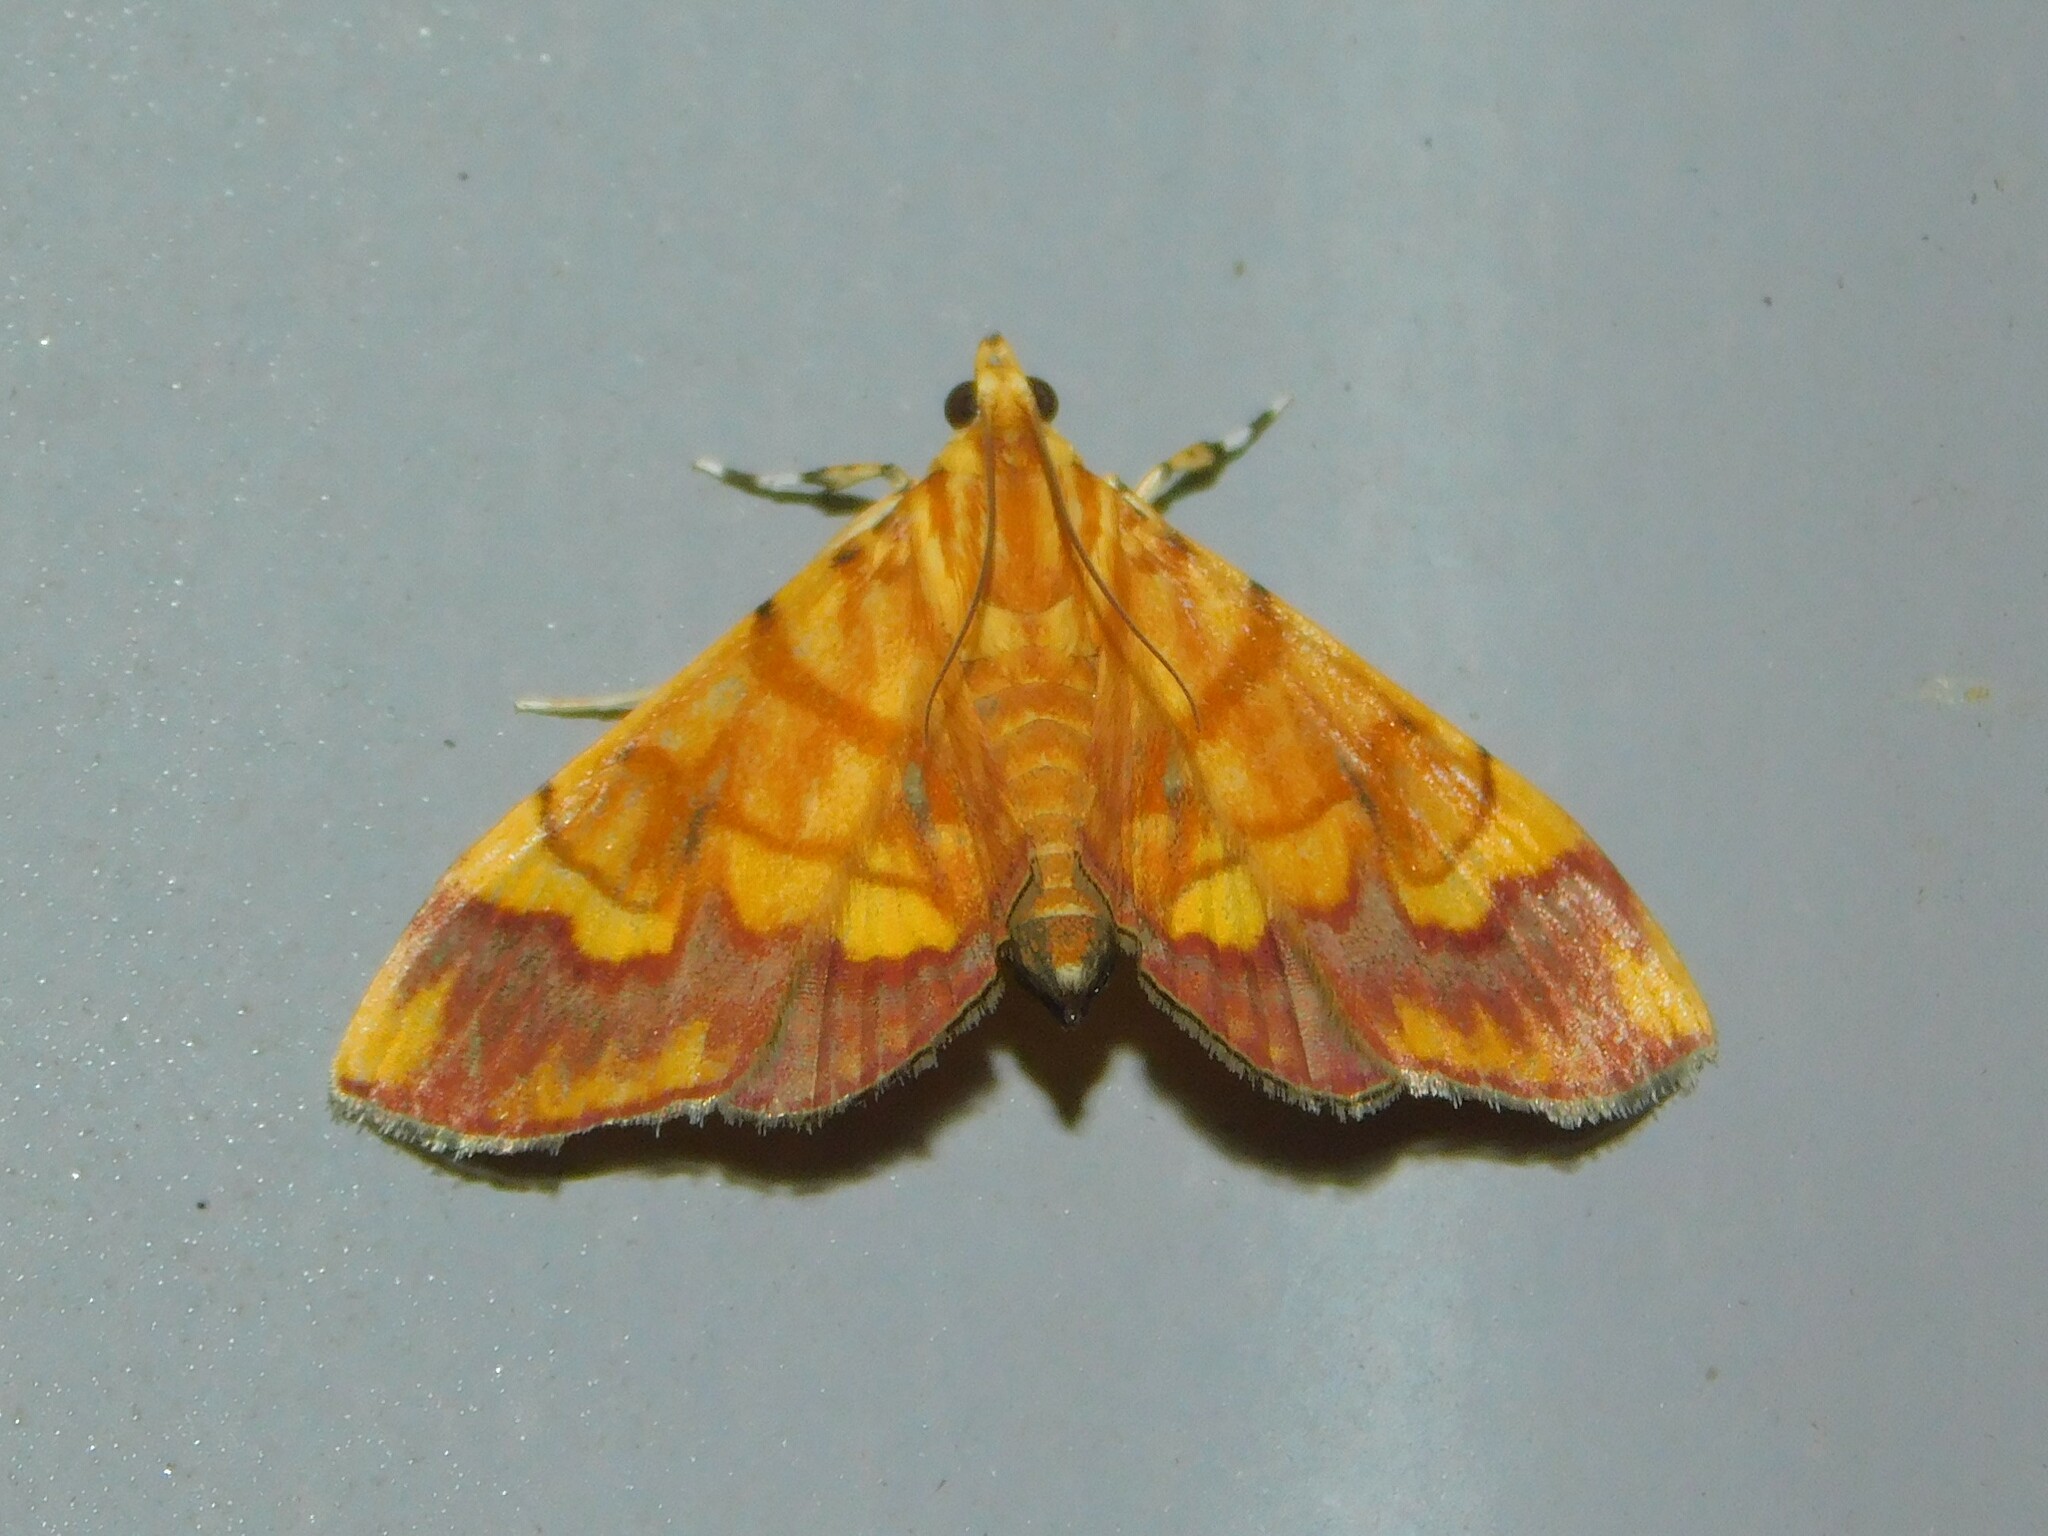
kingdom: Animalia
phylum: Arthropoda
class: Insecta
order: Lepidoptera
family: Crambidae
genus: Cryptosara
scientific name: Cryptosara caritalis
